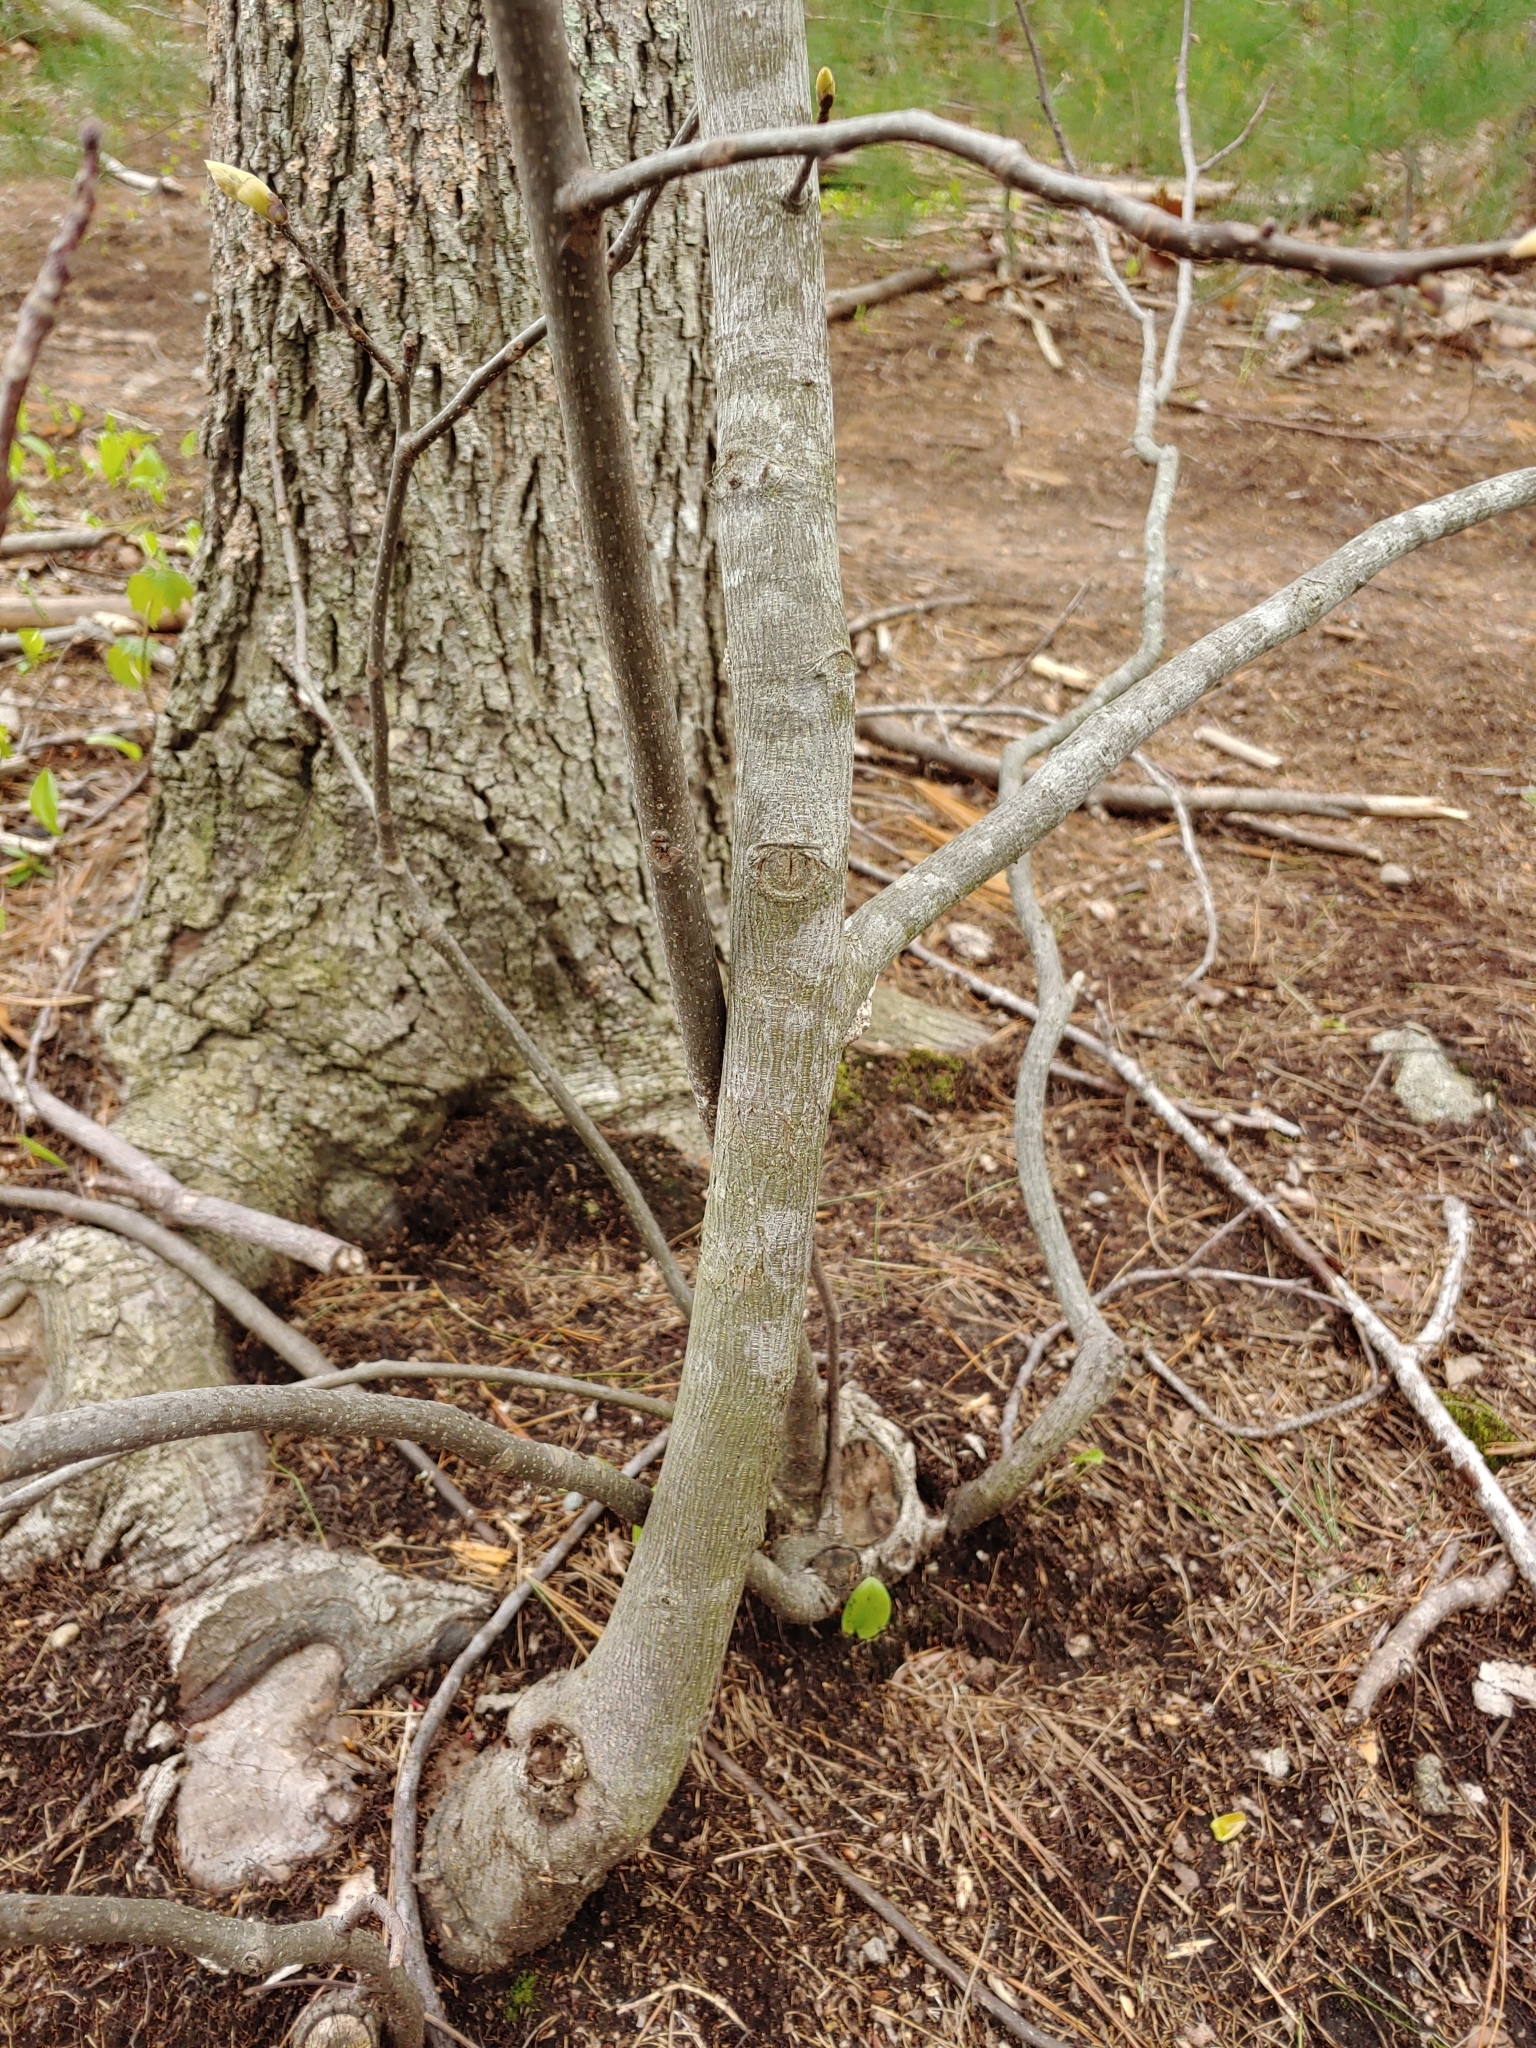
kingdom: Plantae
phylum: Tracheophyta
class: Magnoliopsida
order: Sapindales
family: Sapindaceae
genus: Acer
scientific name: Acer rubrum
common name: Red maple
